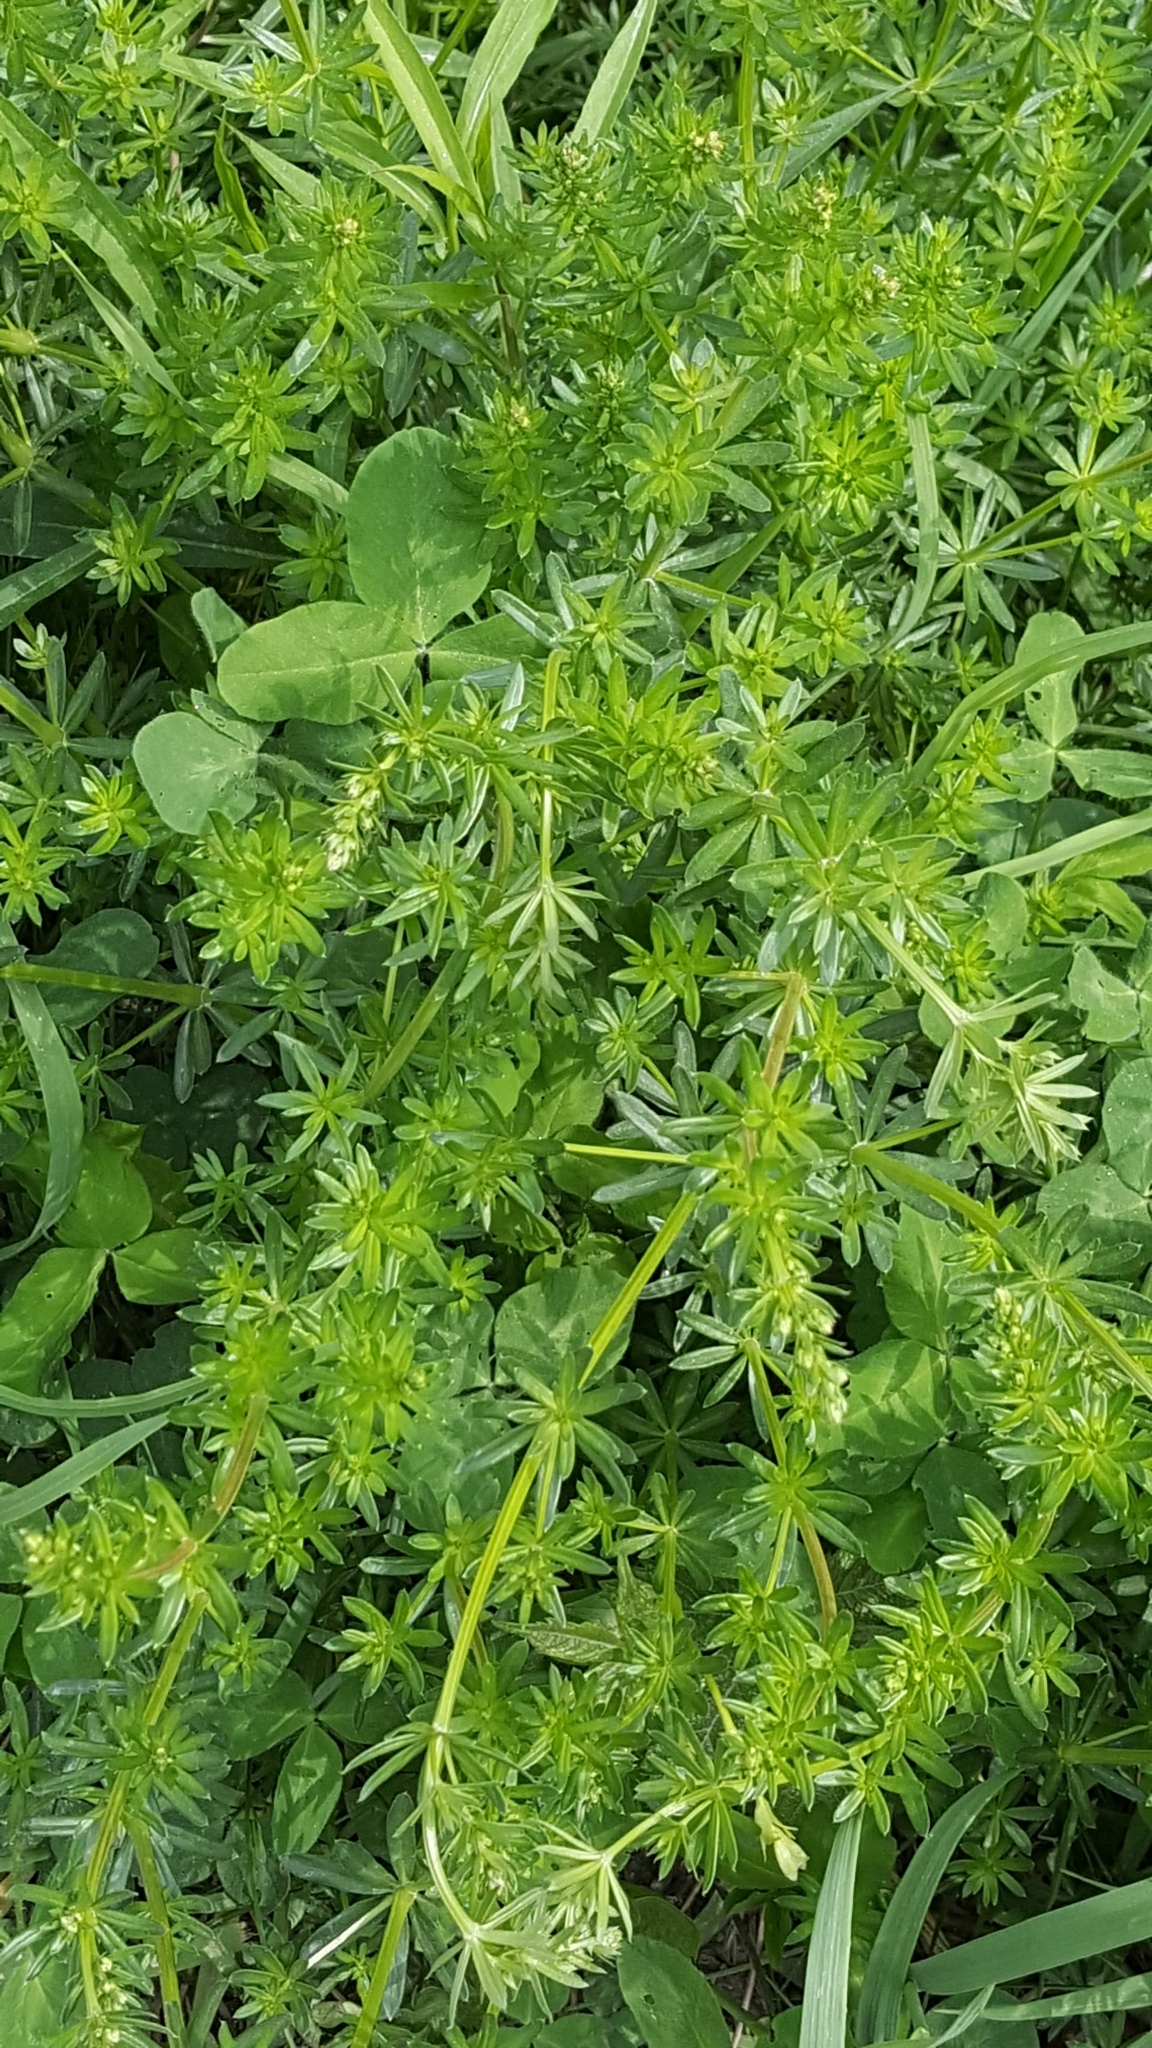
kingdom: Plantae
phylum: Tracheophyta
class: Magnoliopsida
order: Gentianales
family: Rubiaceae
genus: Galium
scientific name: Galium mollugo
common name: Hedge bedstraw
